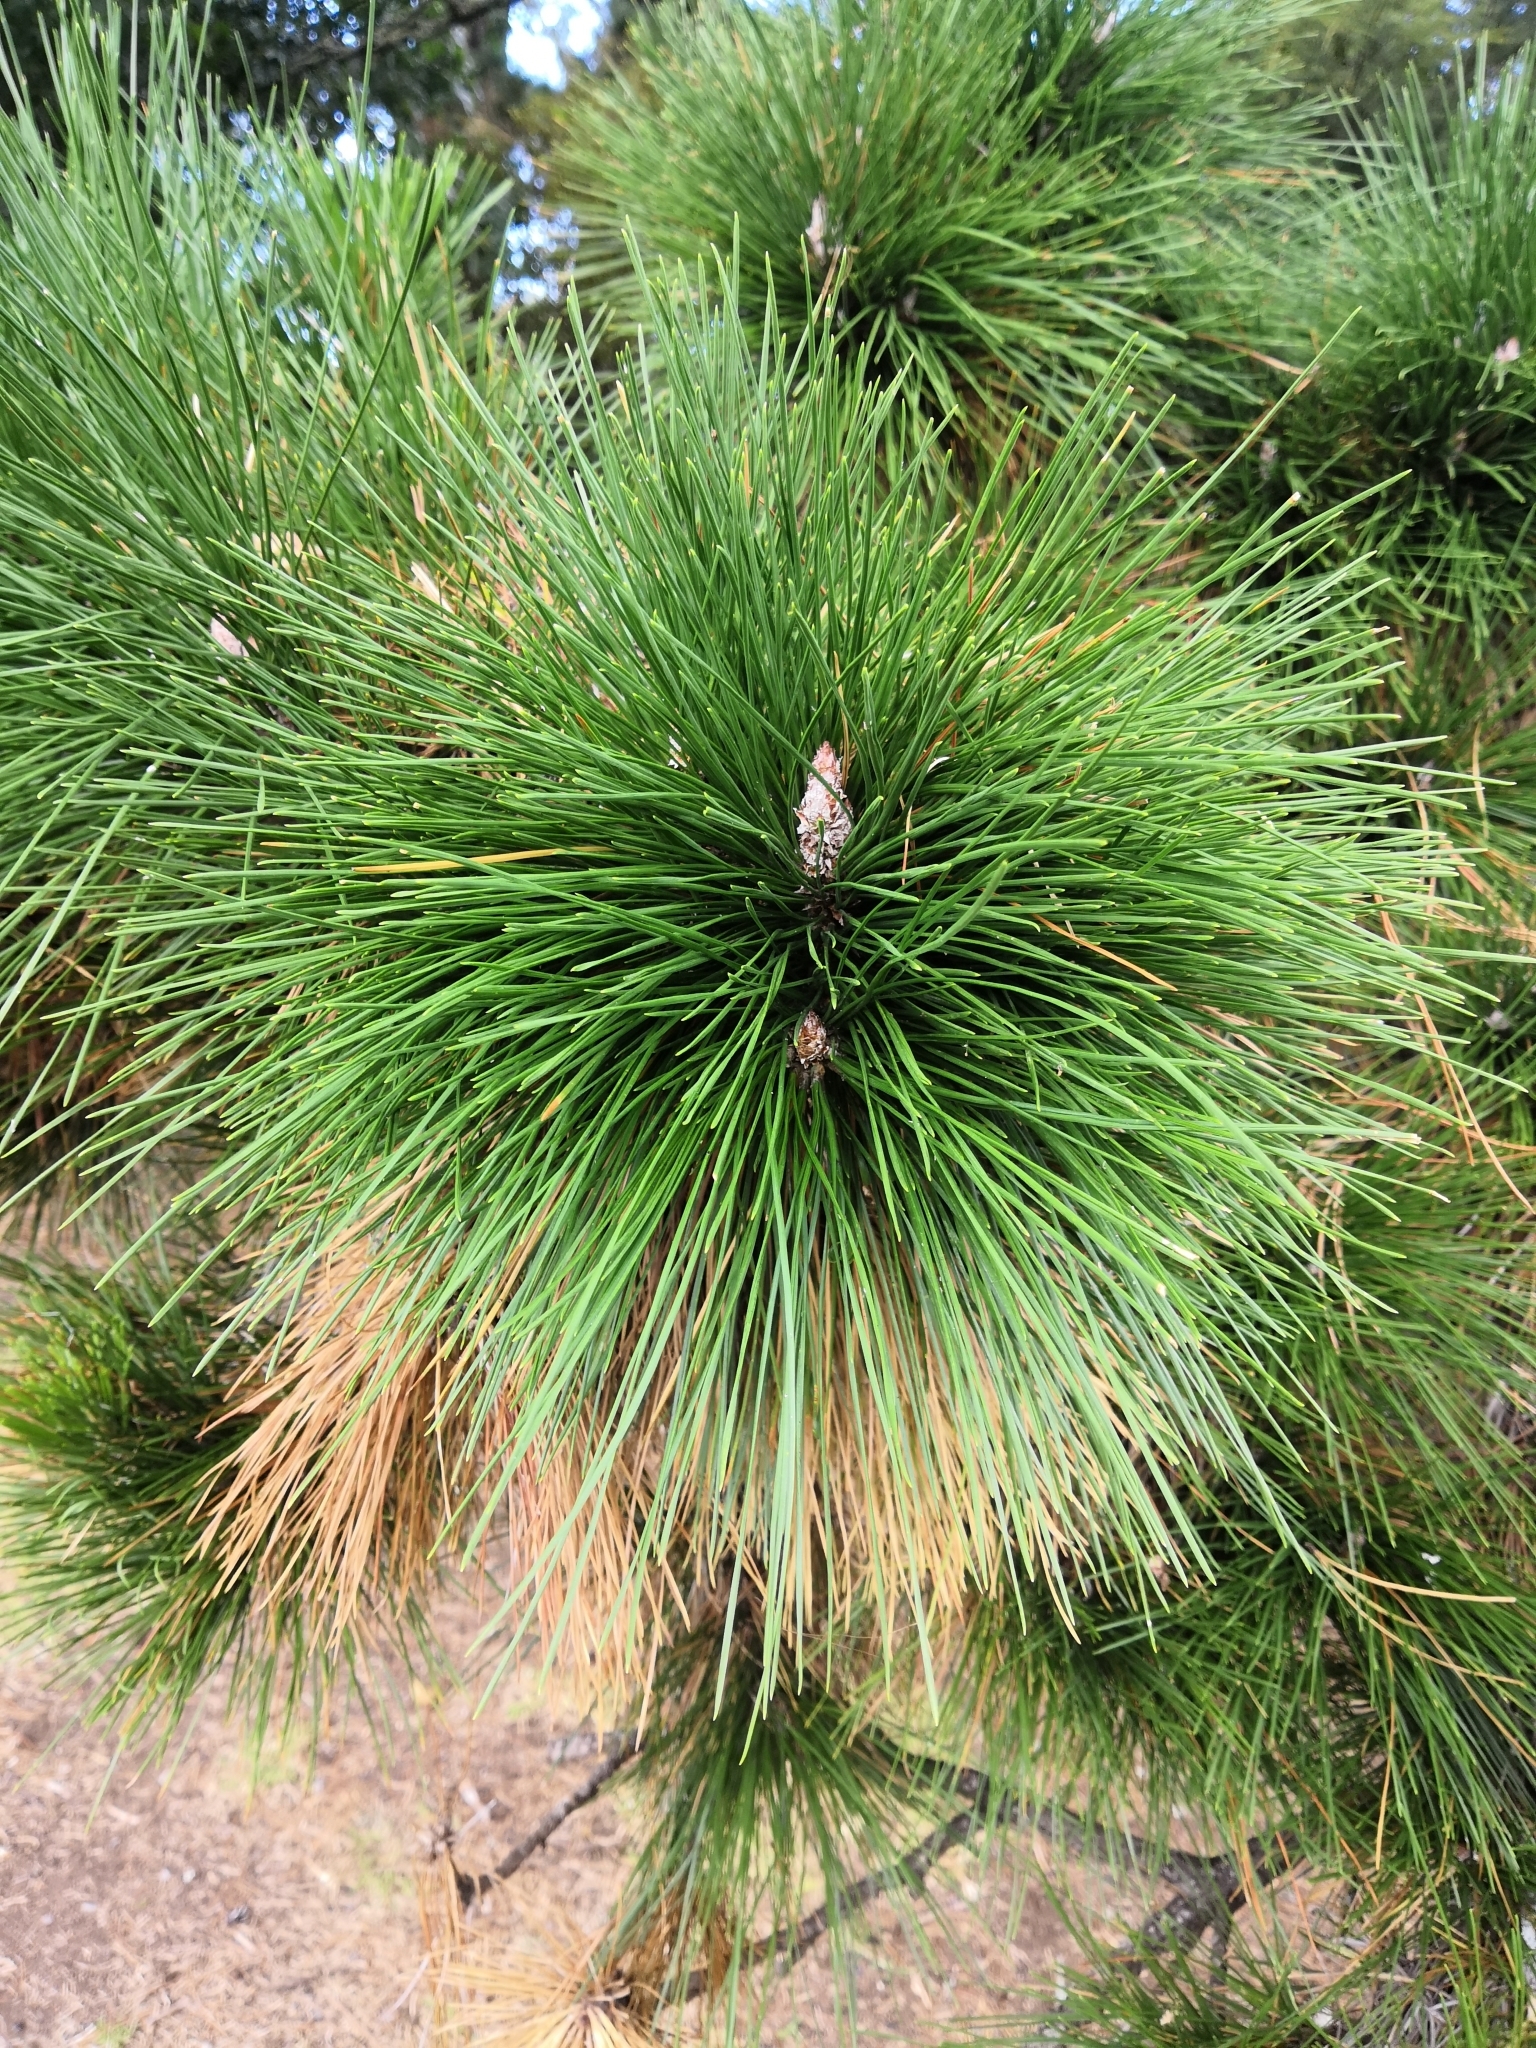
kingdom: Plantae
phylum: Tracheophyta
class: Pinopsida
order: Pinales
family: Pinaceae
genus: Pinus
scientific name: Pinus radiata
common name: Monterey pine
